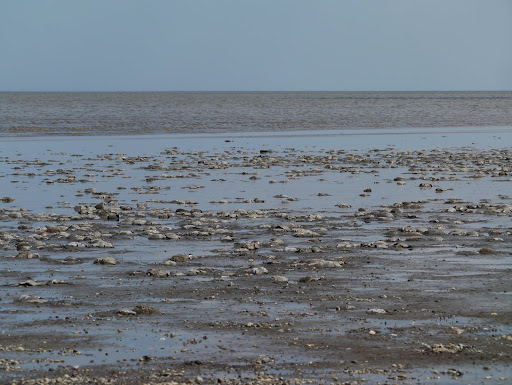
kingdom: Animalia
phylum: Arthropoda
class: Merostomata
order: Xiphosurida
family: Limulidae
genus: Limulus
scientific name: Limulus polyphemus
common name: Horseshoe crab
